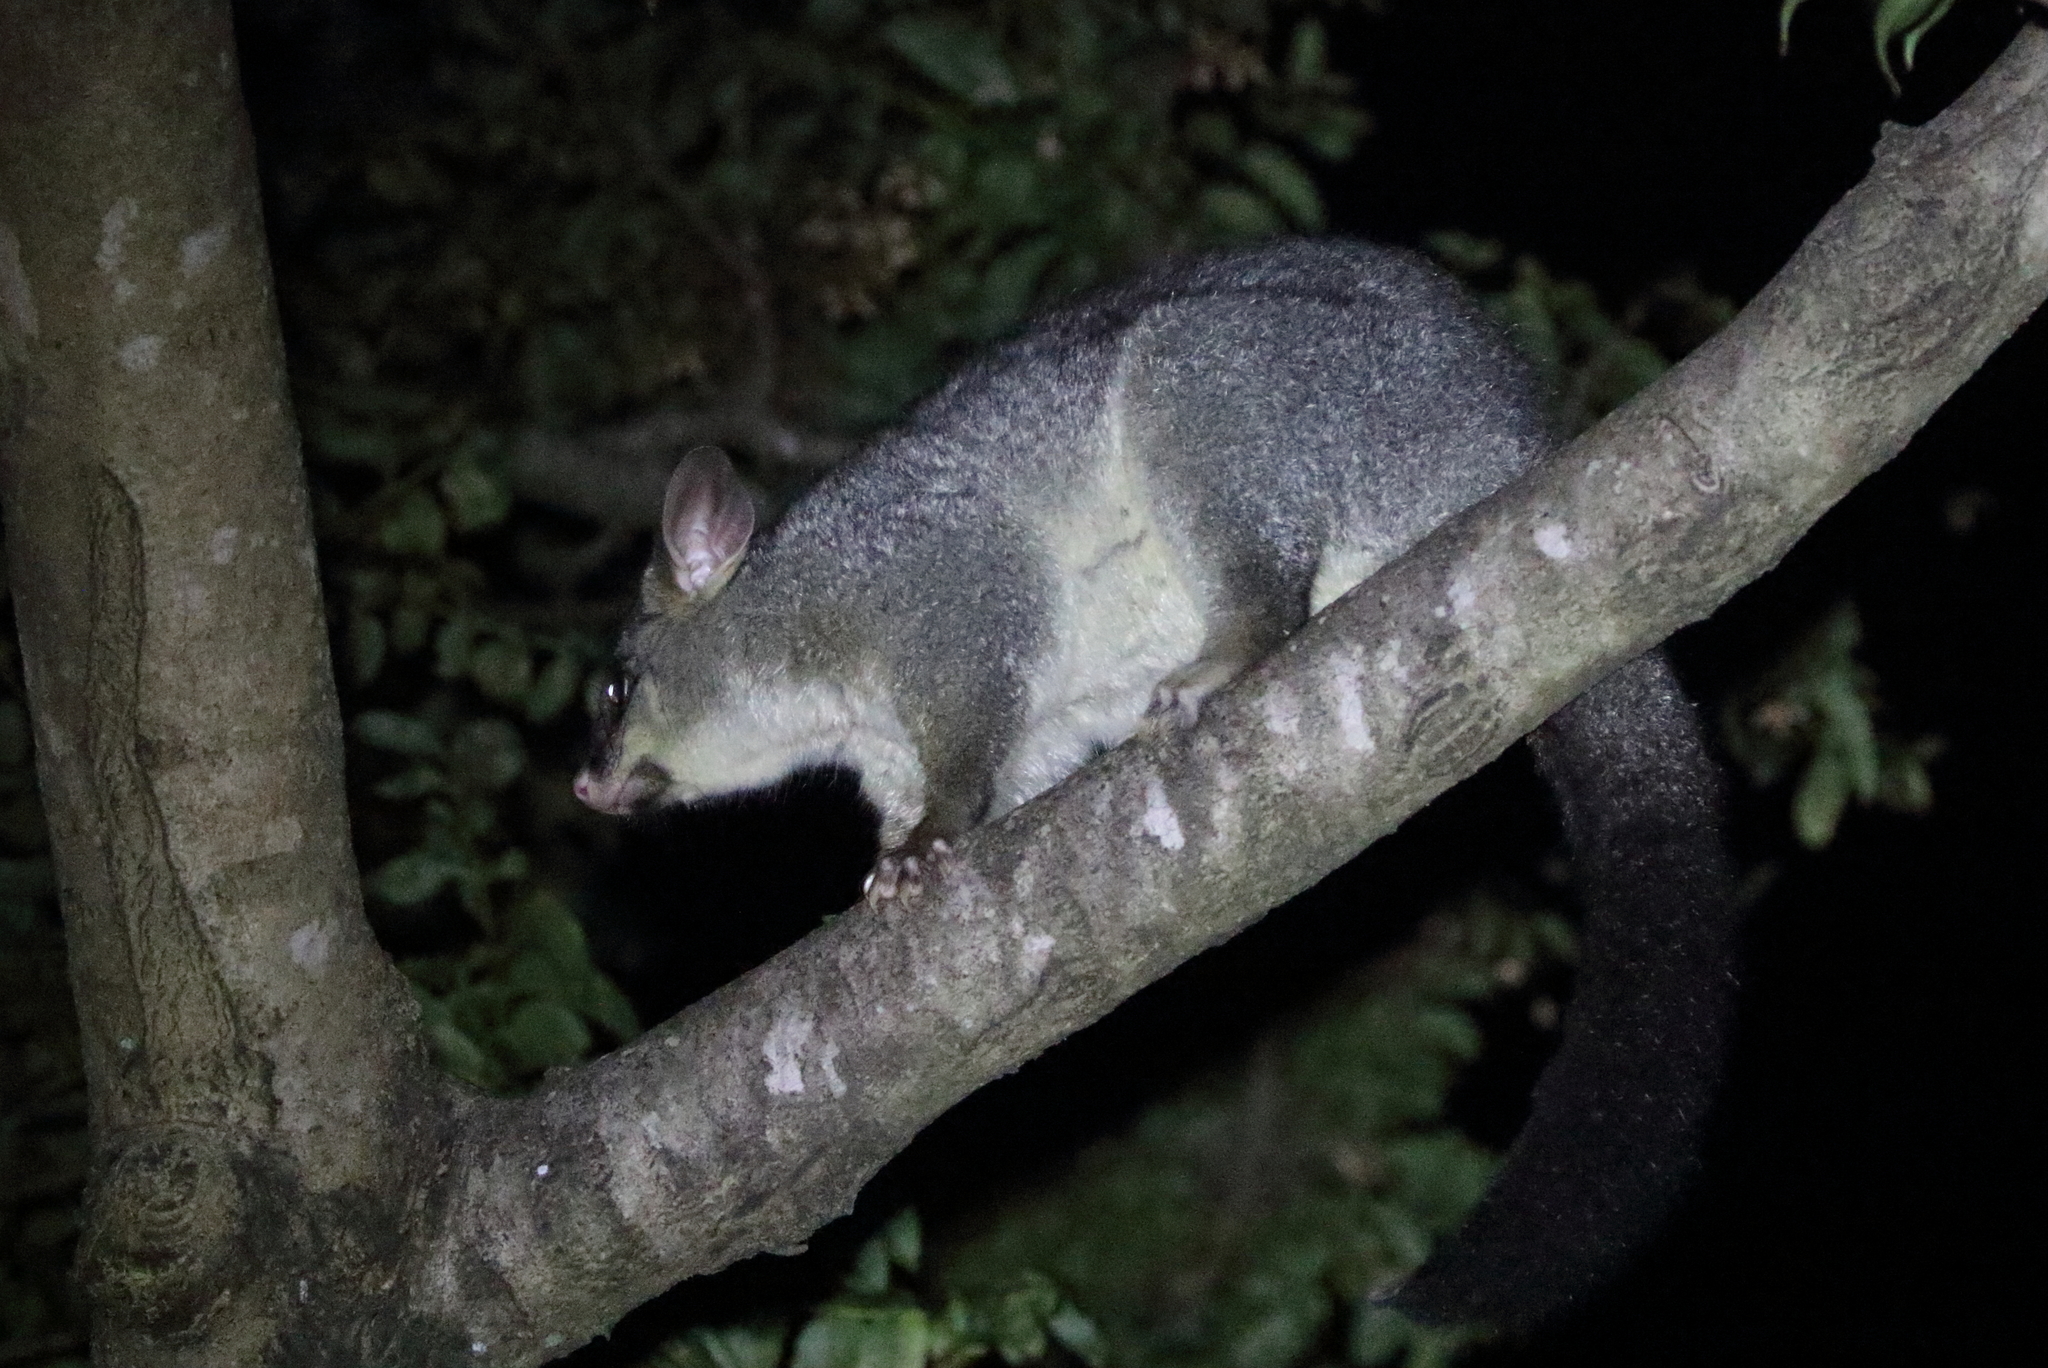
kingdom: Animalia
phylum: Chordata
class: Mammalia
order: Diprotodontia
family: Phalangeridae
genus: Trichosurus
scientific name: Trichosurus vulpecula
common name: Common brushtail
